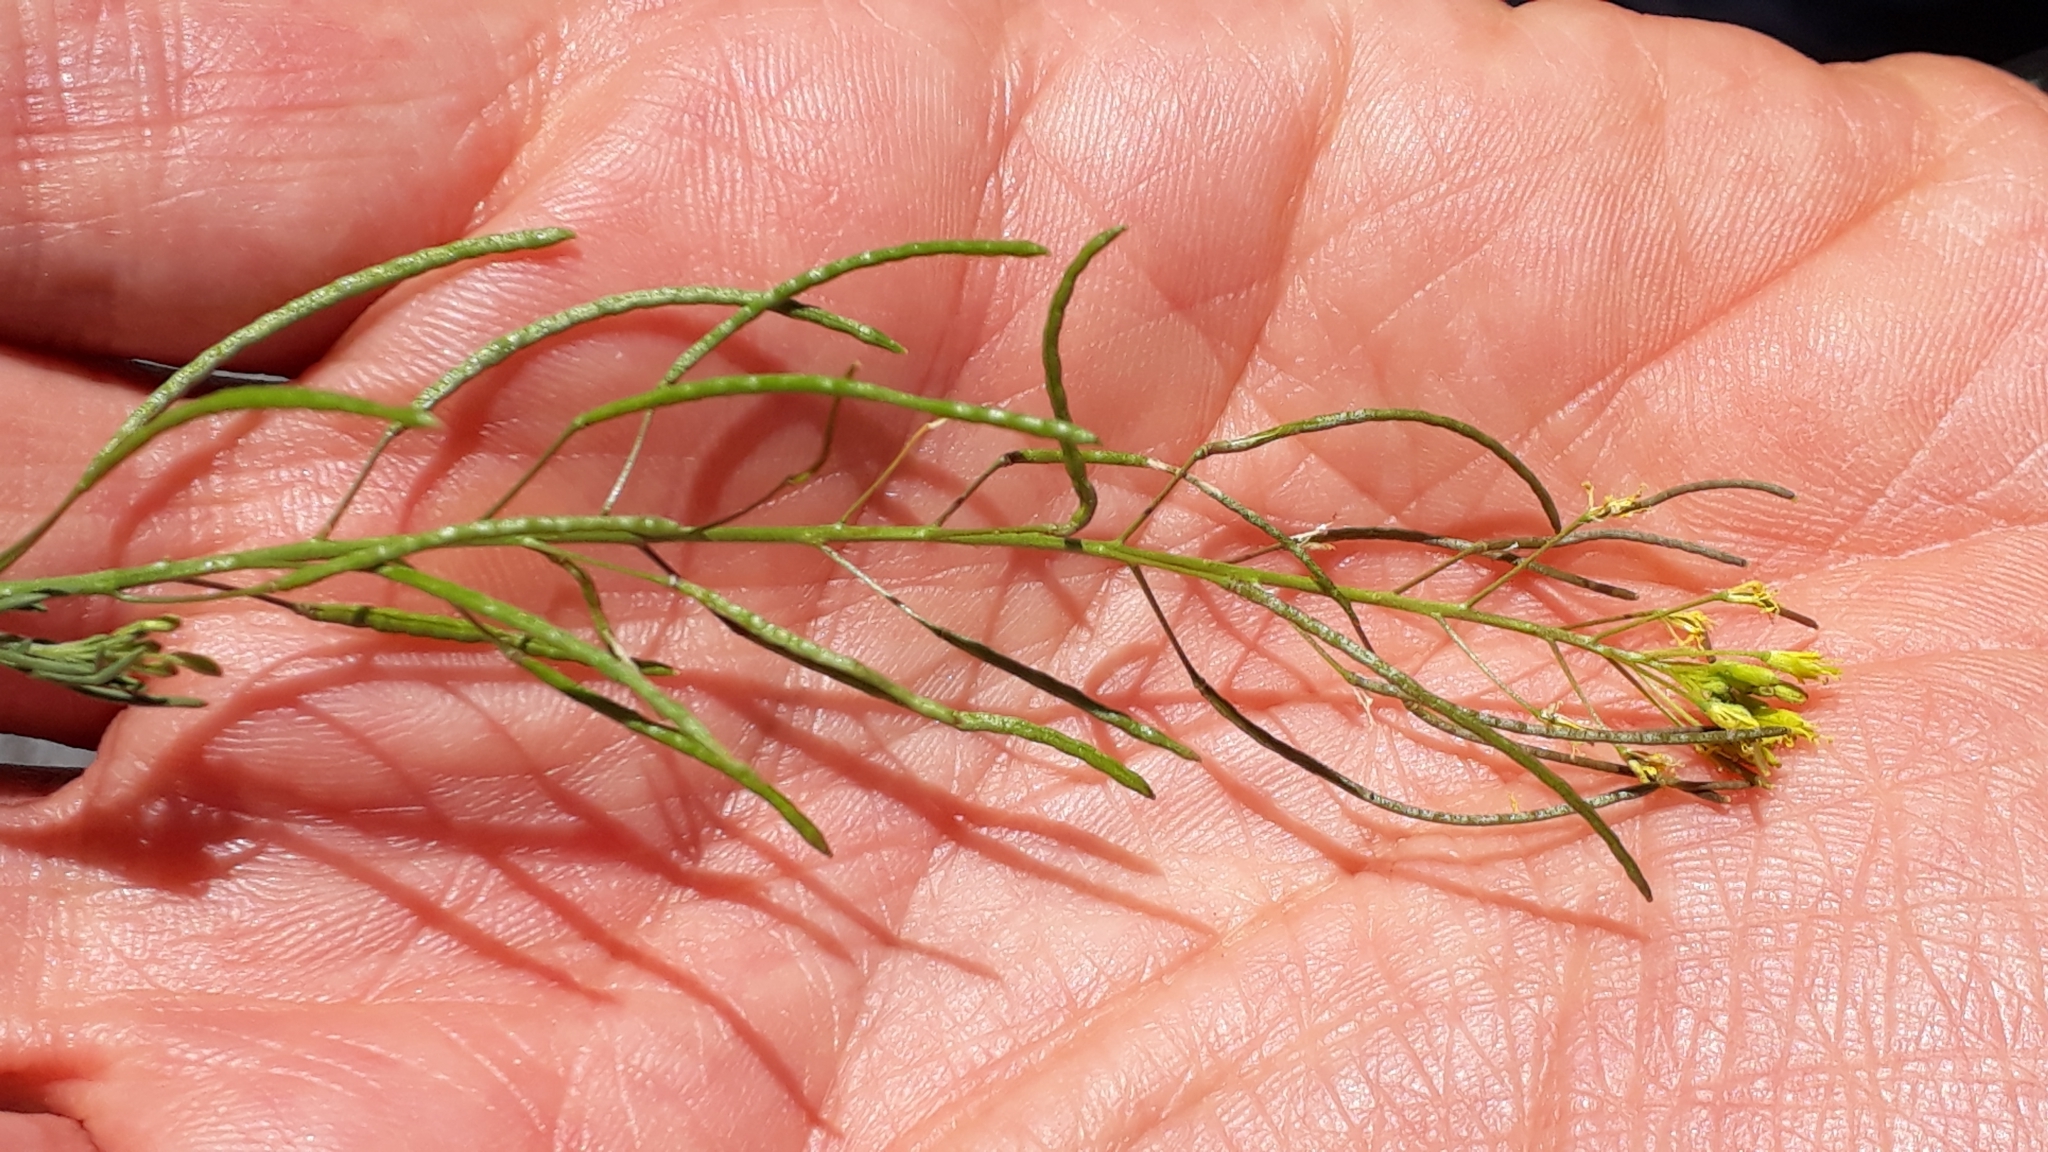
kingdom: Plantae
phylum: Tracheophyta
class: Magnoliopsida
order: Brassicales
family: Brassicaceae
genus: Descurainia
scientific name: Descurainia sophia
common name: Flixweed
